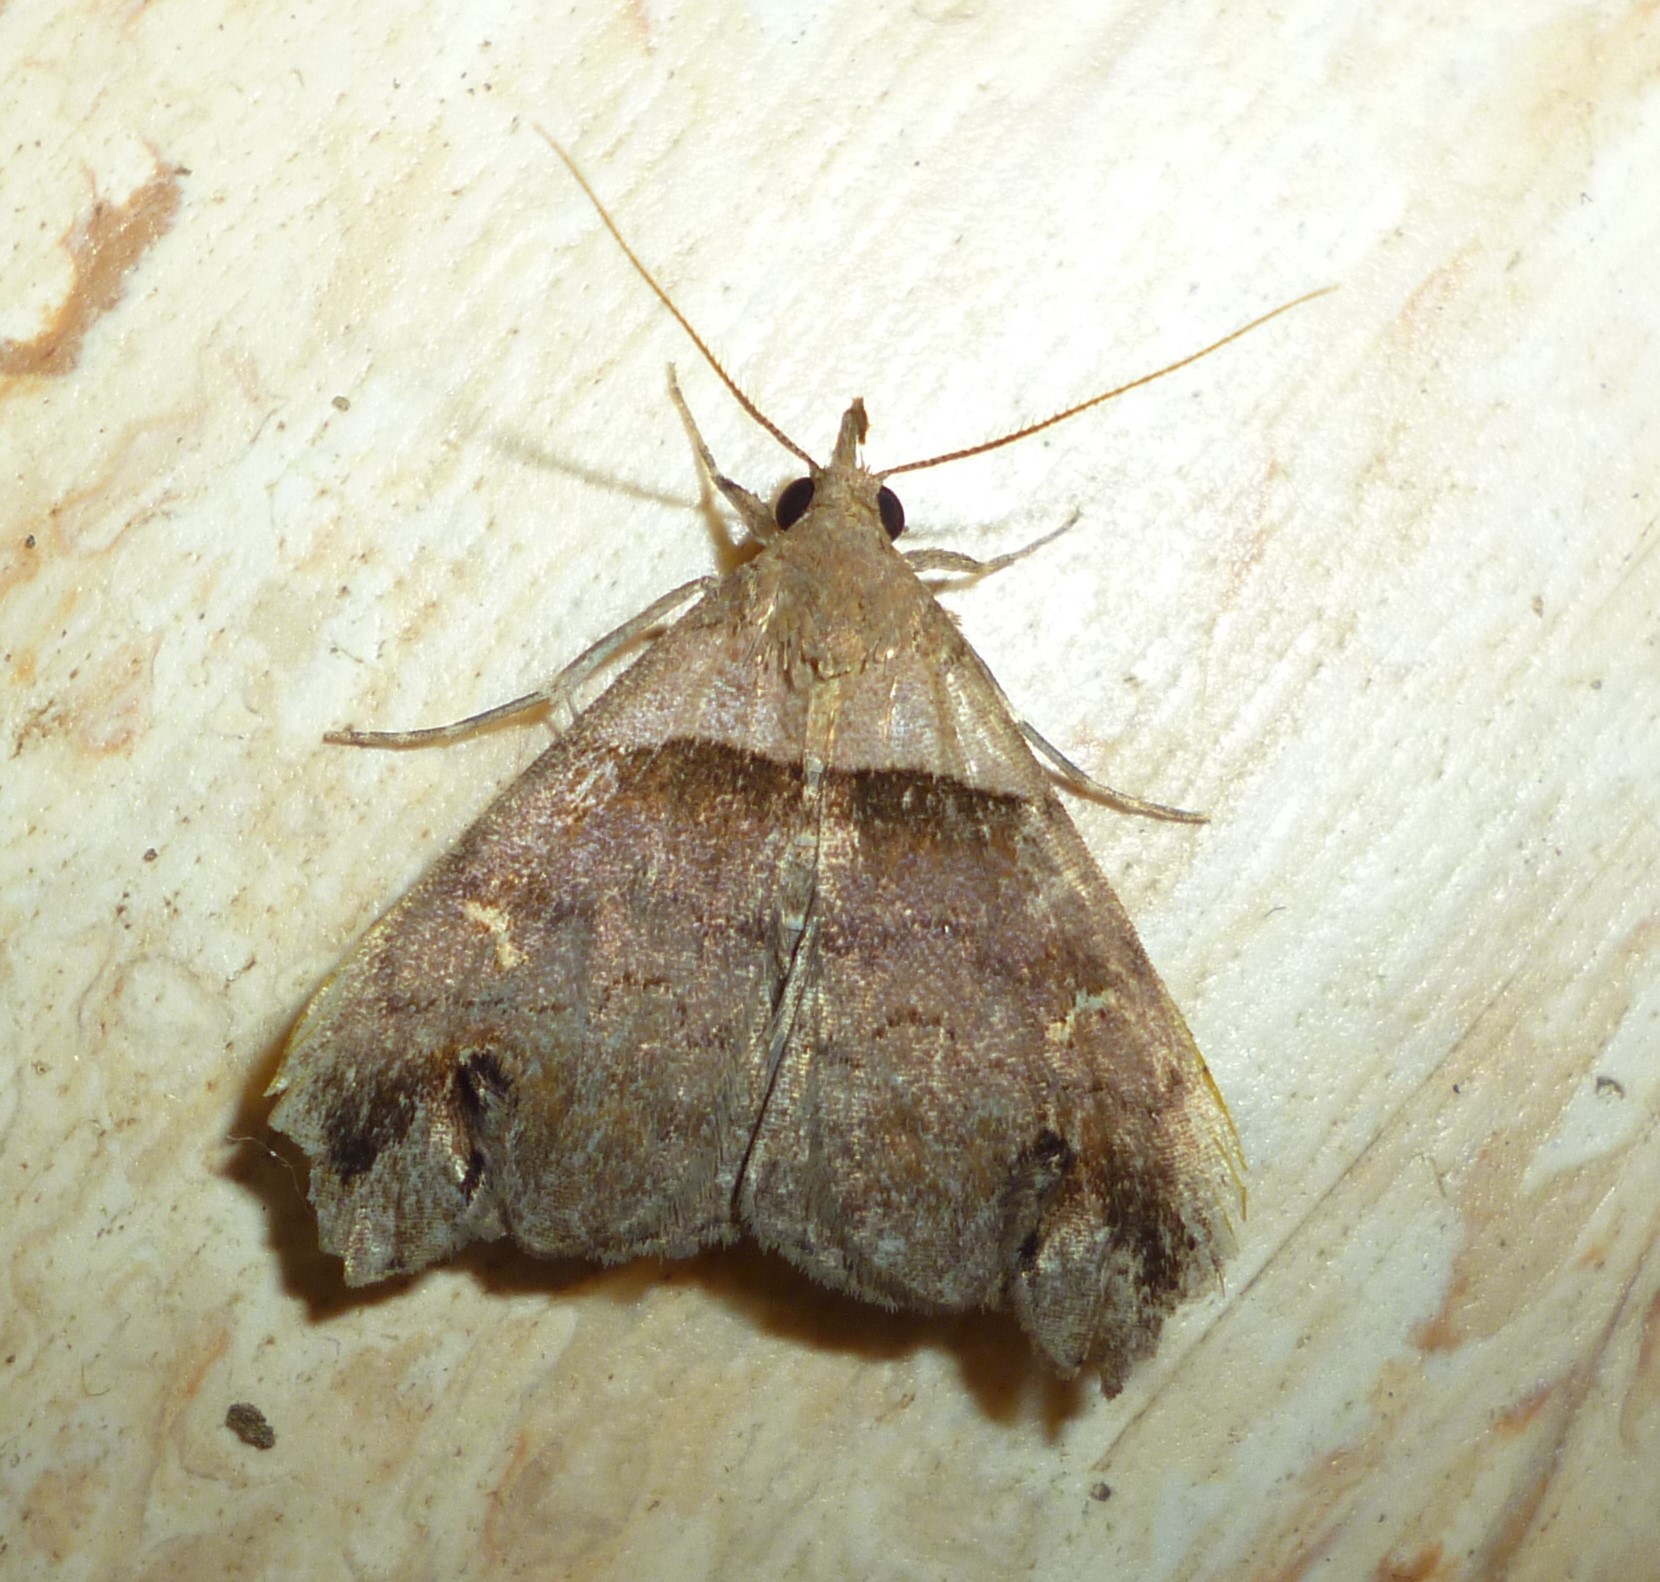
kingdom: Animalia
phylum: Arthropoda
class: Insecta
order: Lepidoptera
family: Erebidae
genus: Lascoria
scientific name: Lascoria ambigualis
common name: Ambiguous moth
